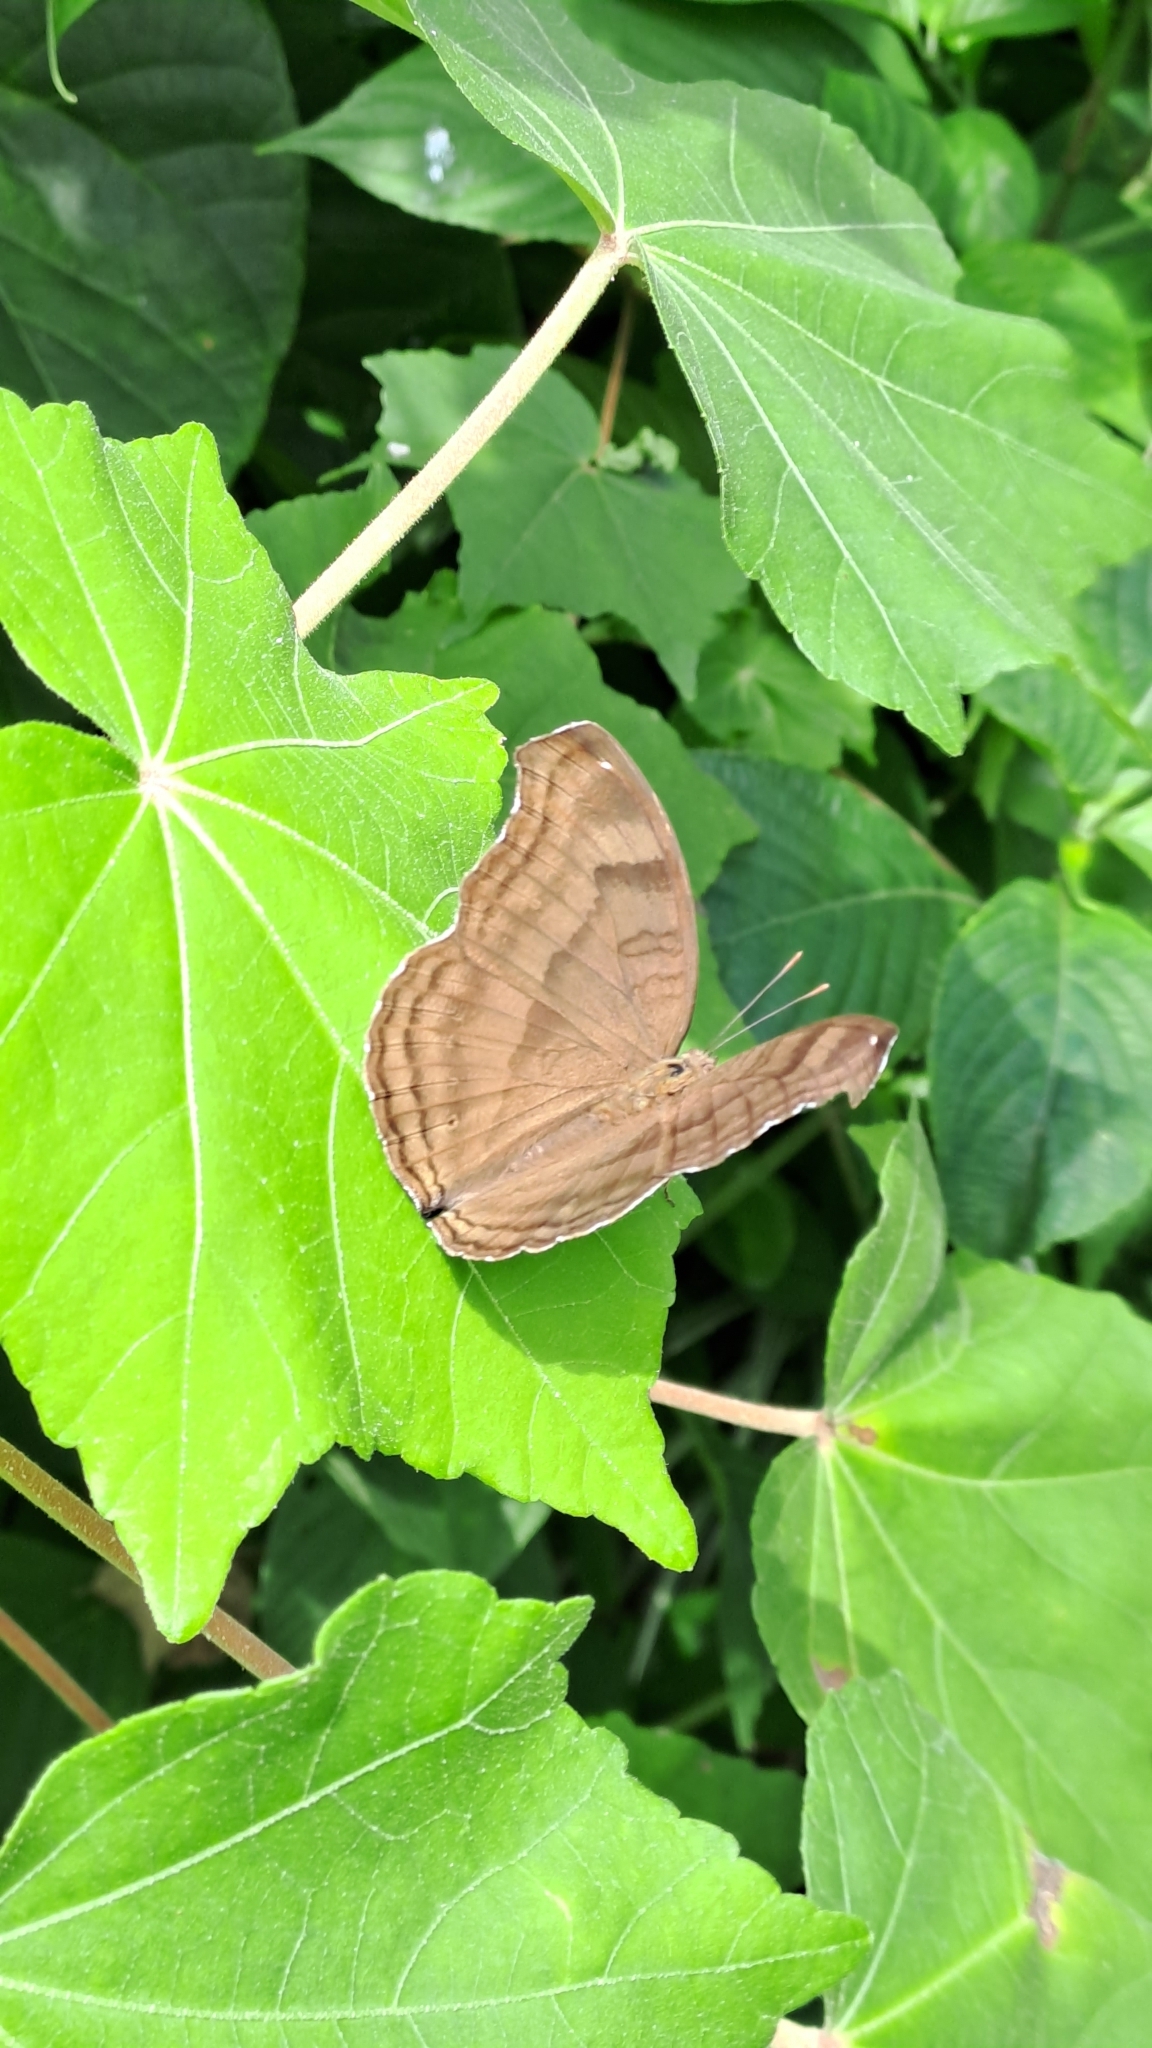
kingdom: Animalia
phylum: Arthropoda
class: Insecta
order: Lepidoptera
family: Nymphalidae
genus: Junonia
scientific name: Junonia iphita
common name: Chocolate pansy
